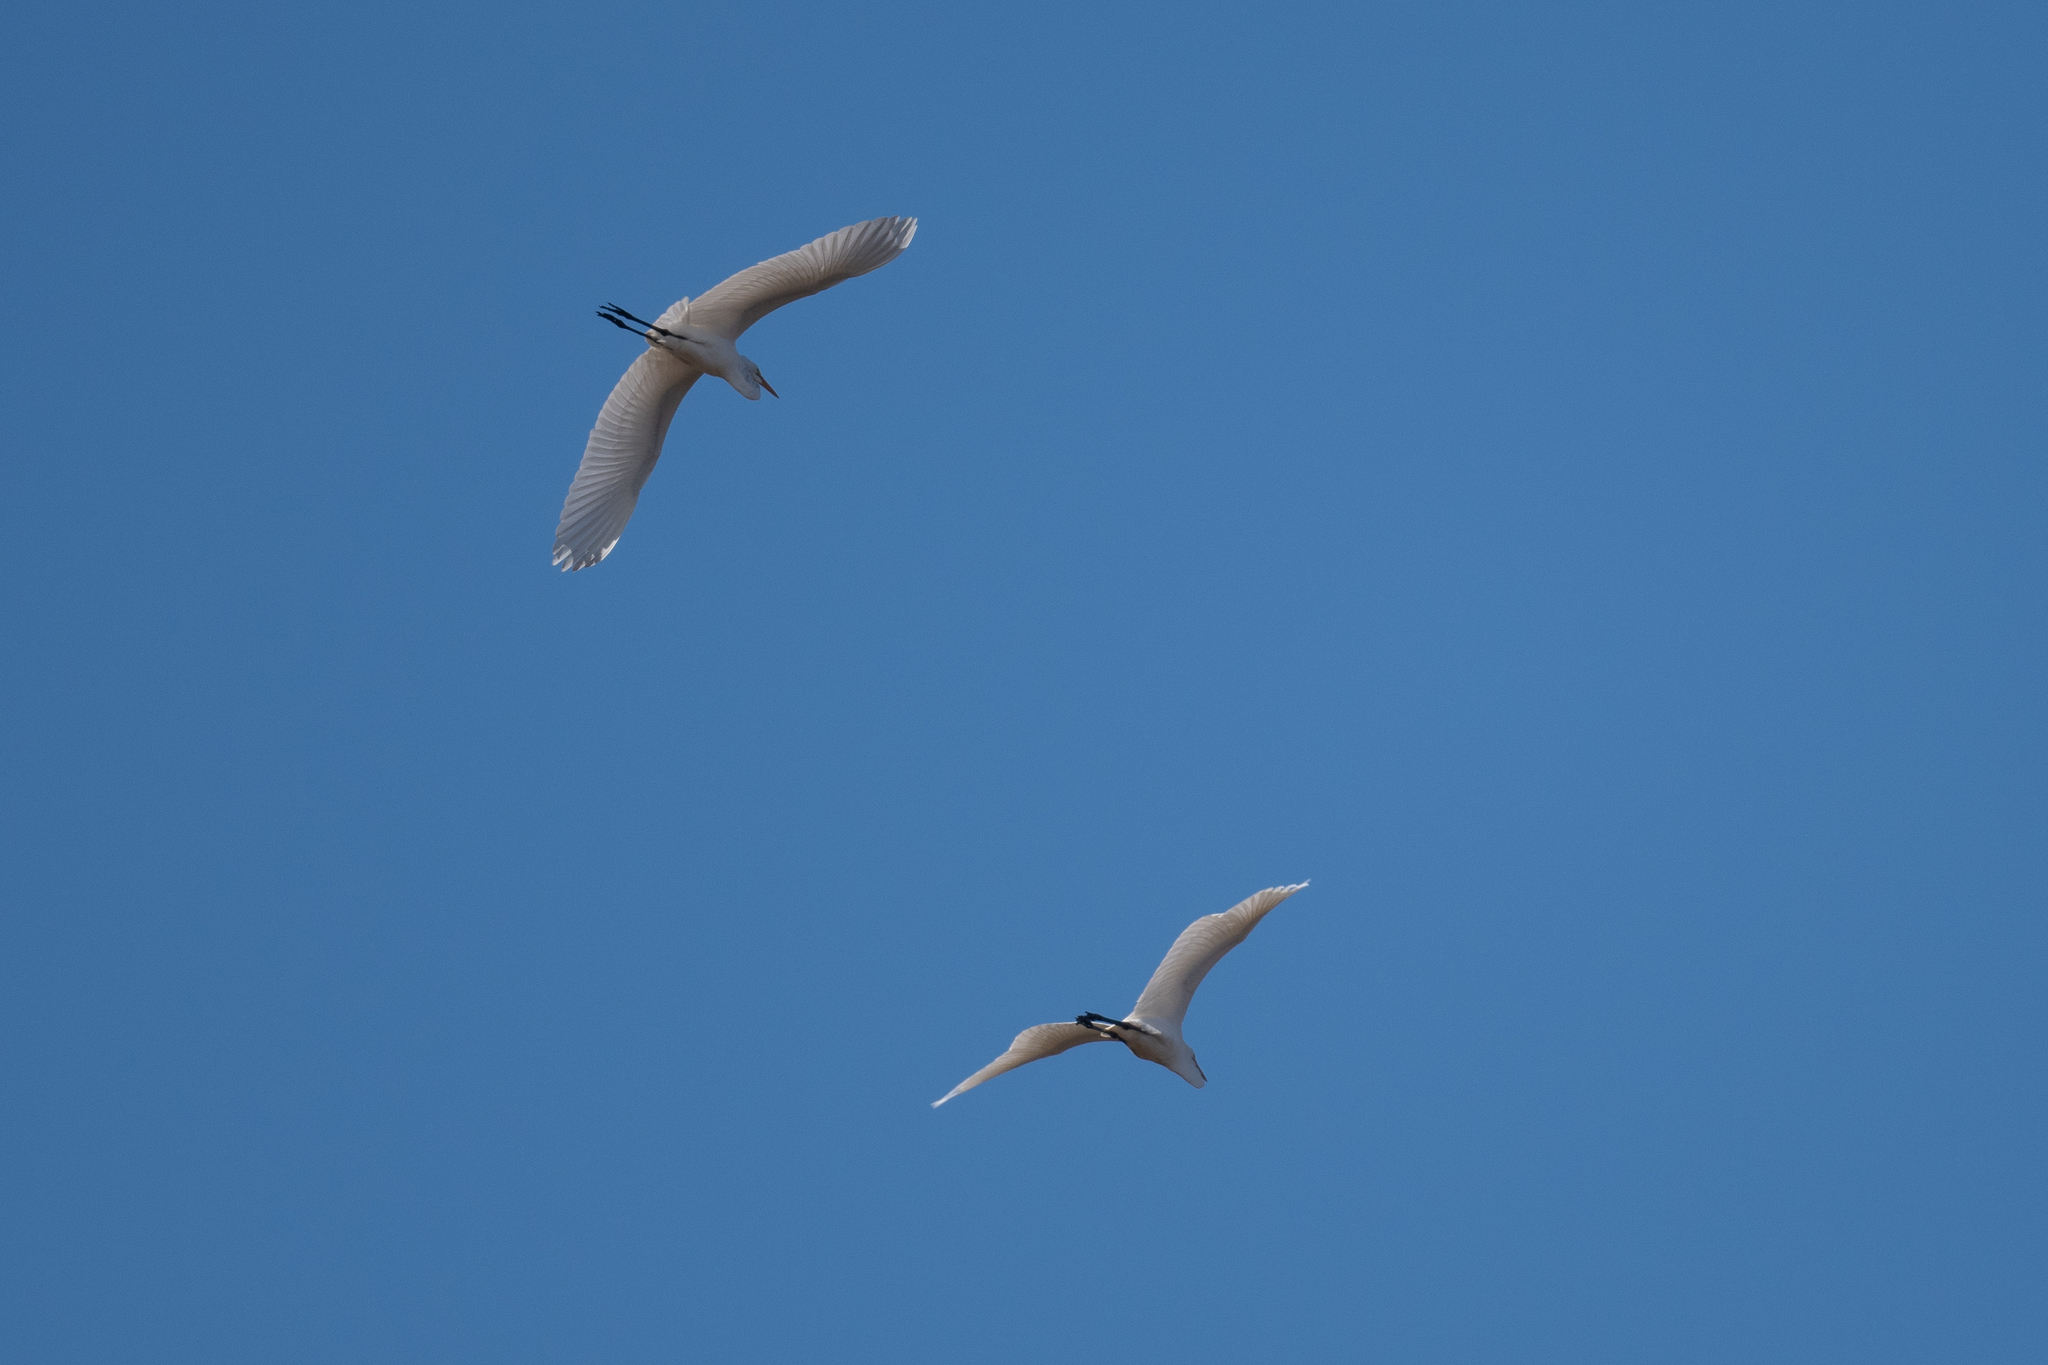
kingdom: Animalia
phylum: Chordata
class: Aves
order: Pelecaniformes
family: Ardeidae
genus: Ardea
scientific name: Ardea alba
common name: Great egret
